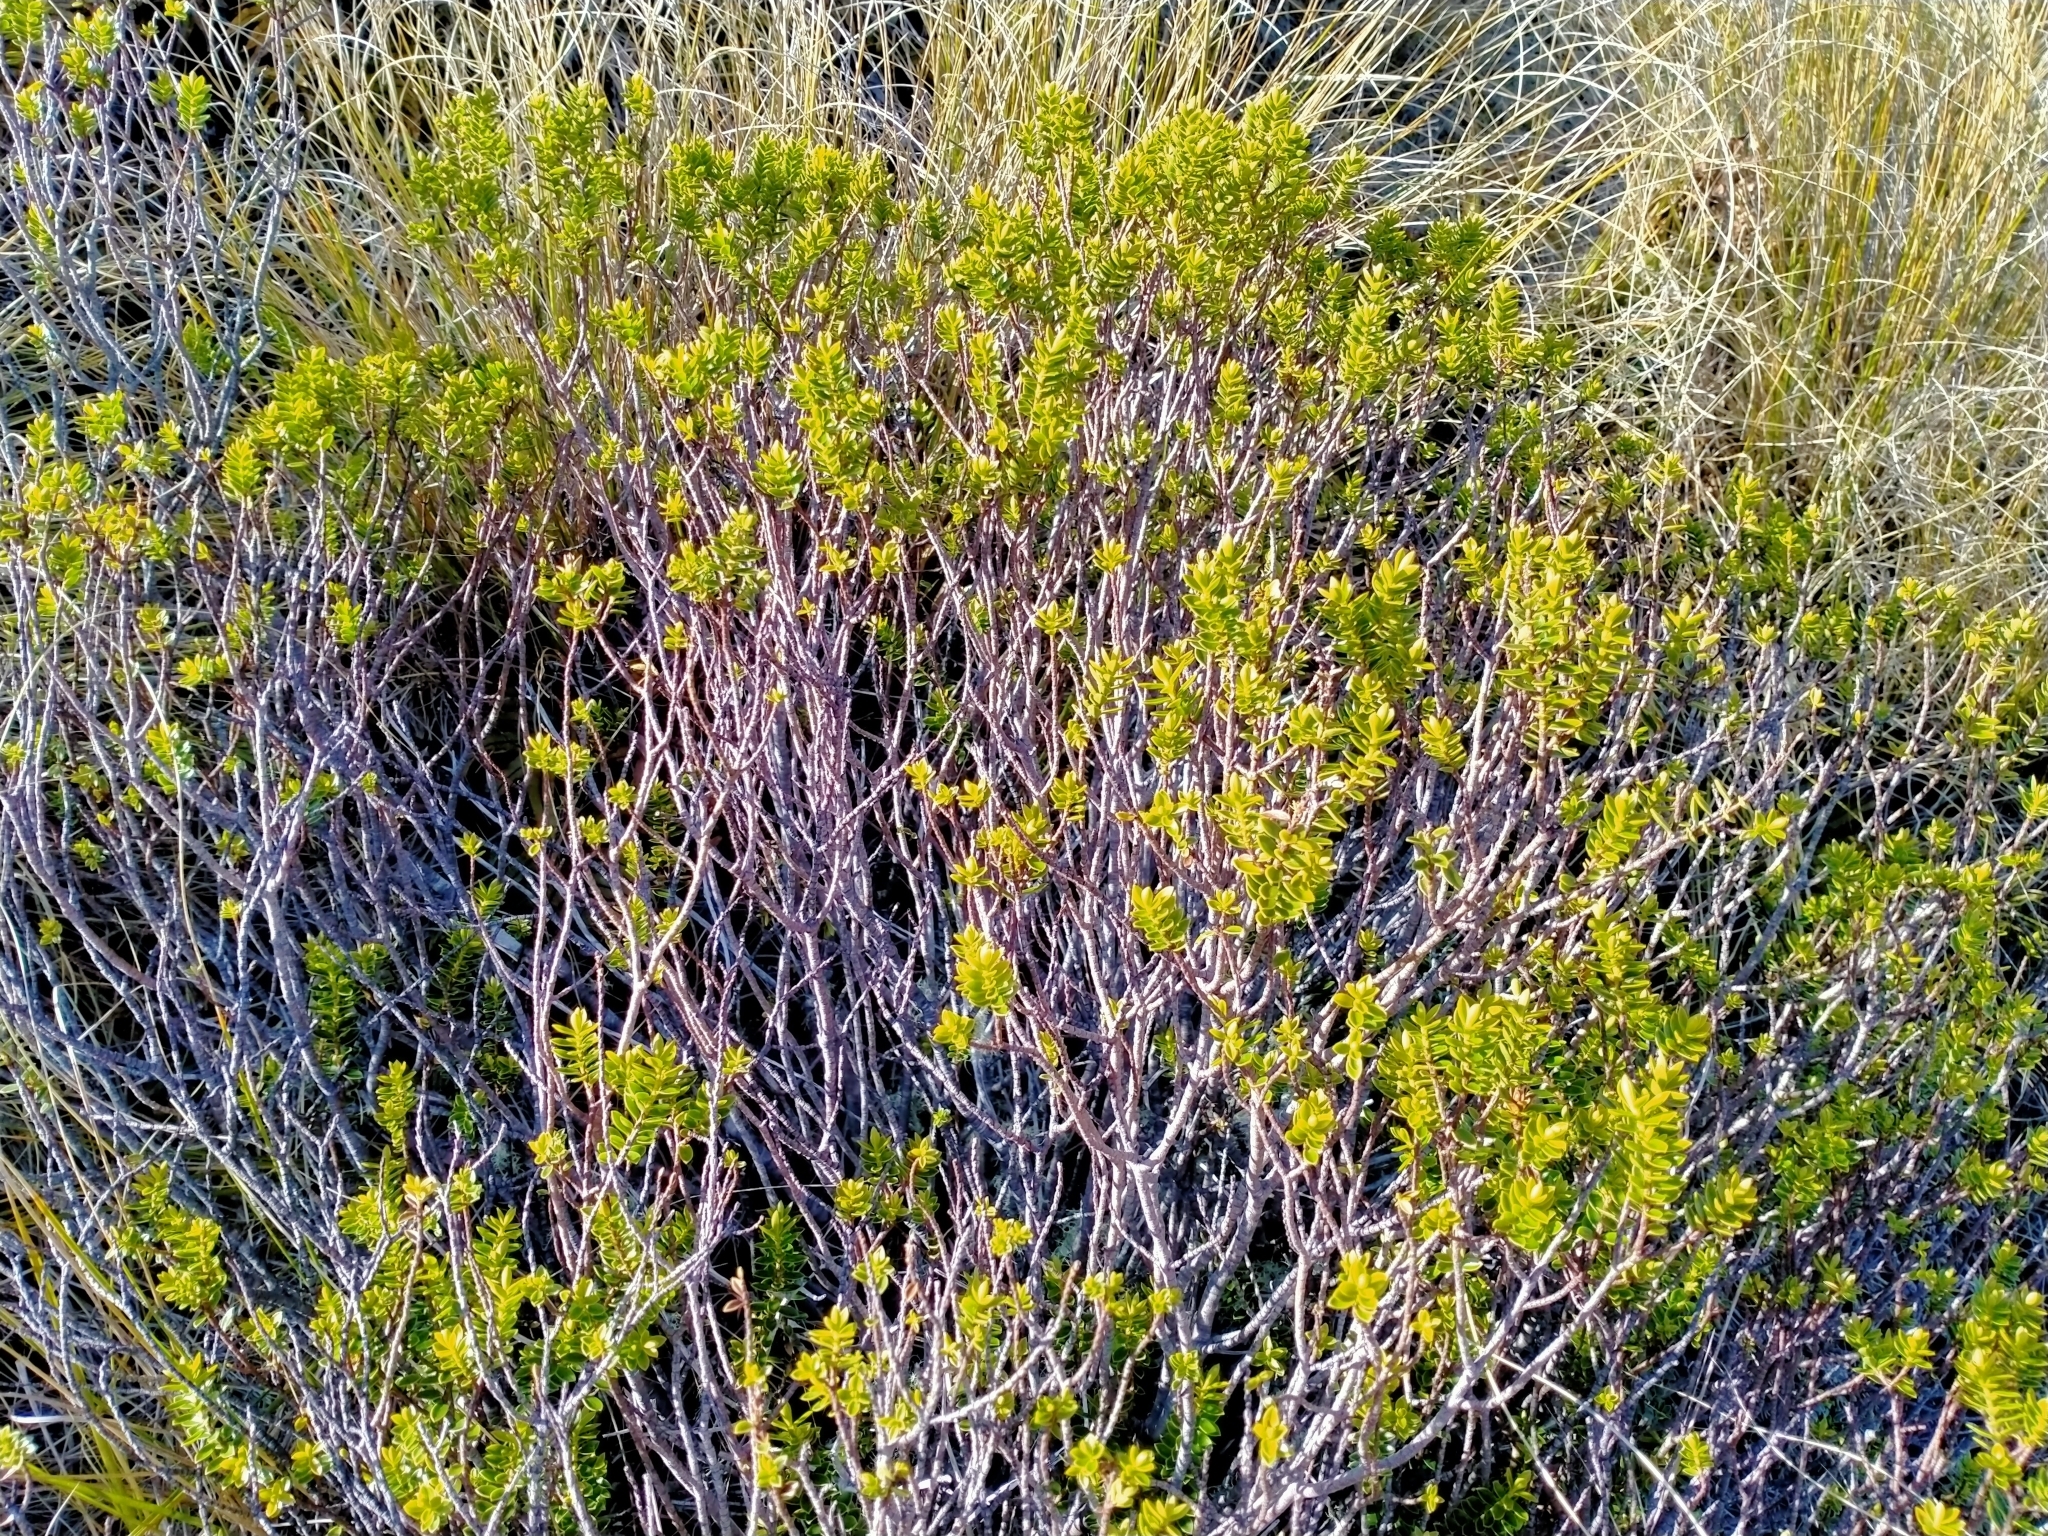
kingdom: Plantae
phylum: Tracheophyta
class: Magnoliopsida
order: Lamiales
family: Plantaginaceae
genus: Veronica
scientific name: Veronica odora
